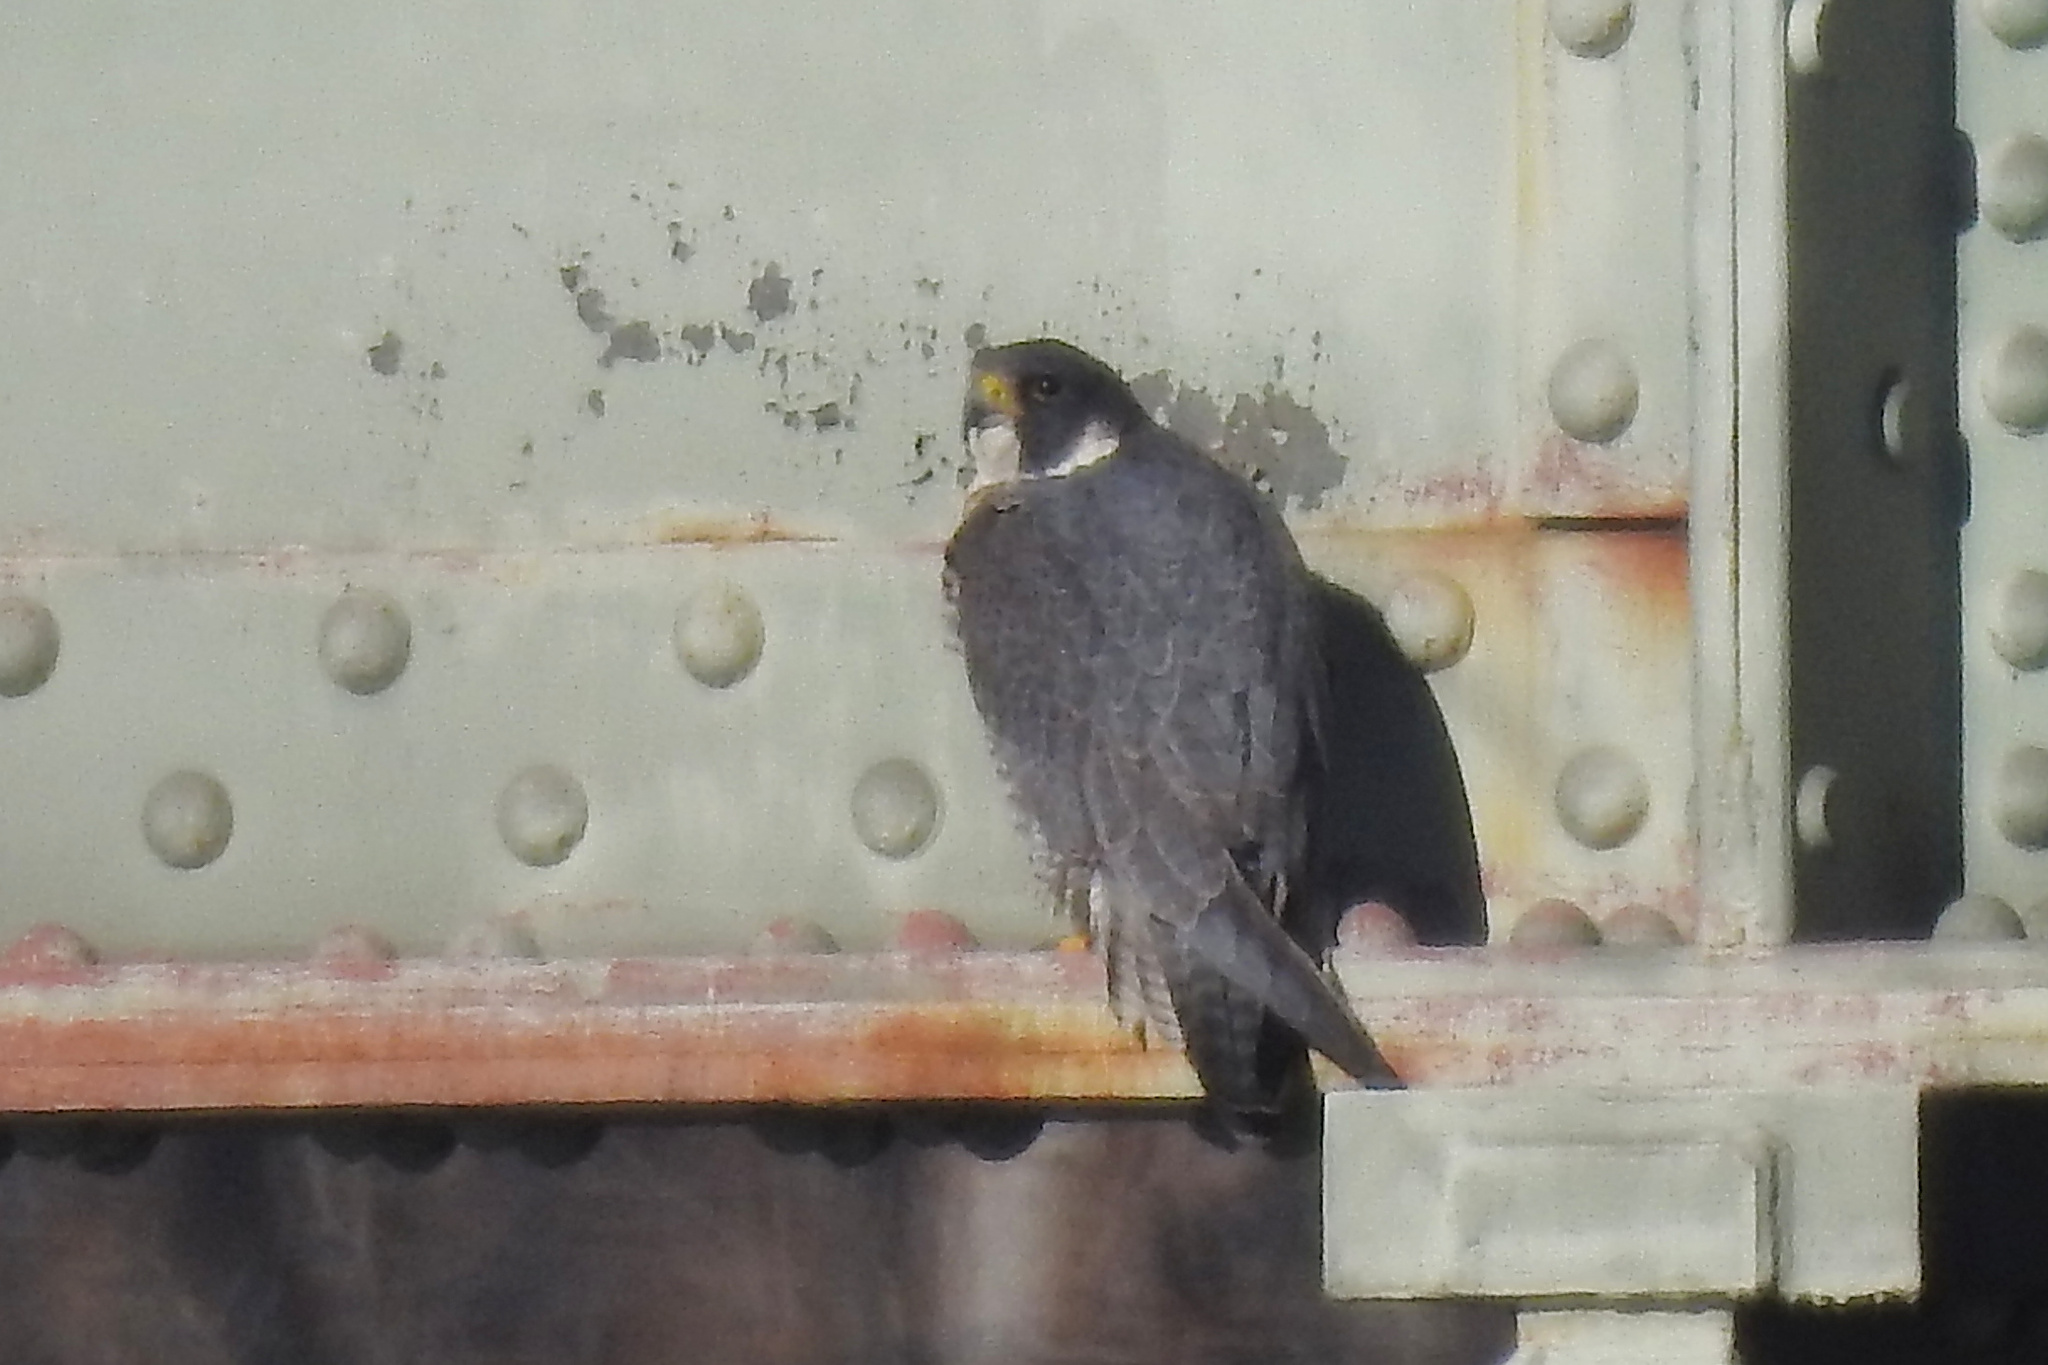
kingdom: Animalia
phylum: Chordata
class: Aves
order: Falconiformes
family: Falconidae
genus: Falco
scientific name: Falco peregrinus
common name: Peregrine falcon
